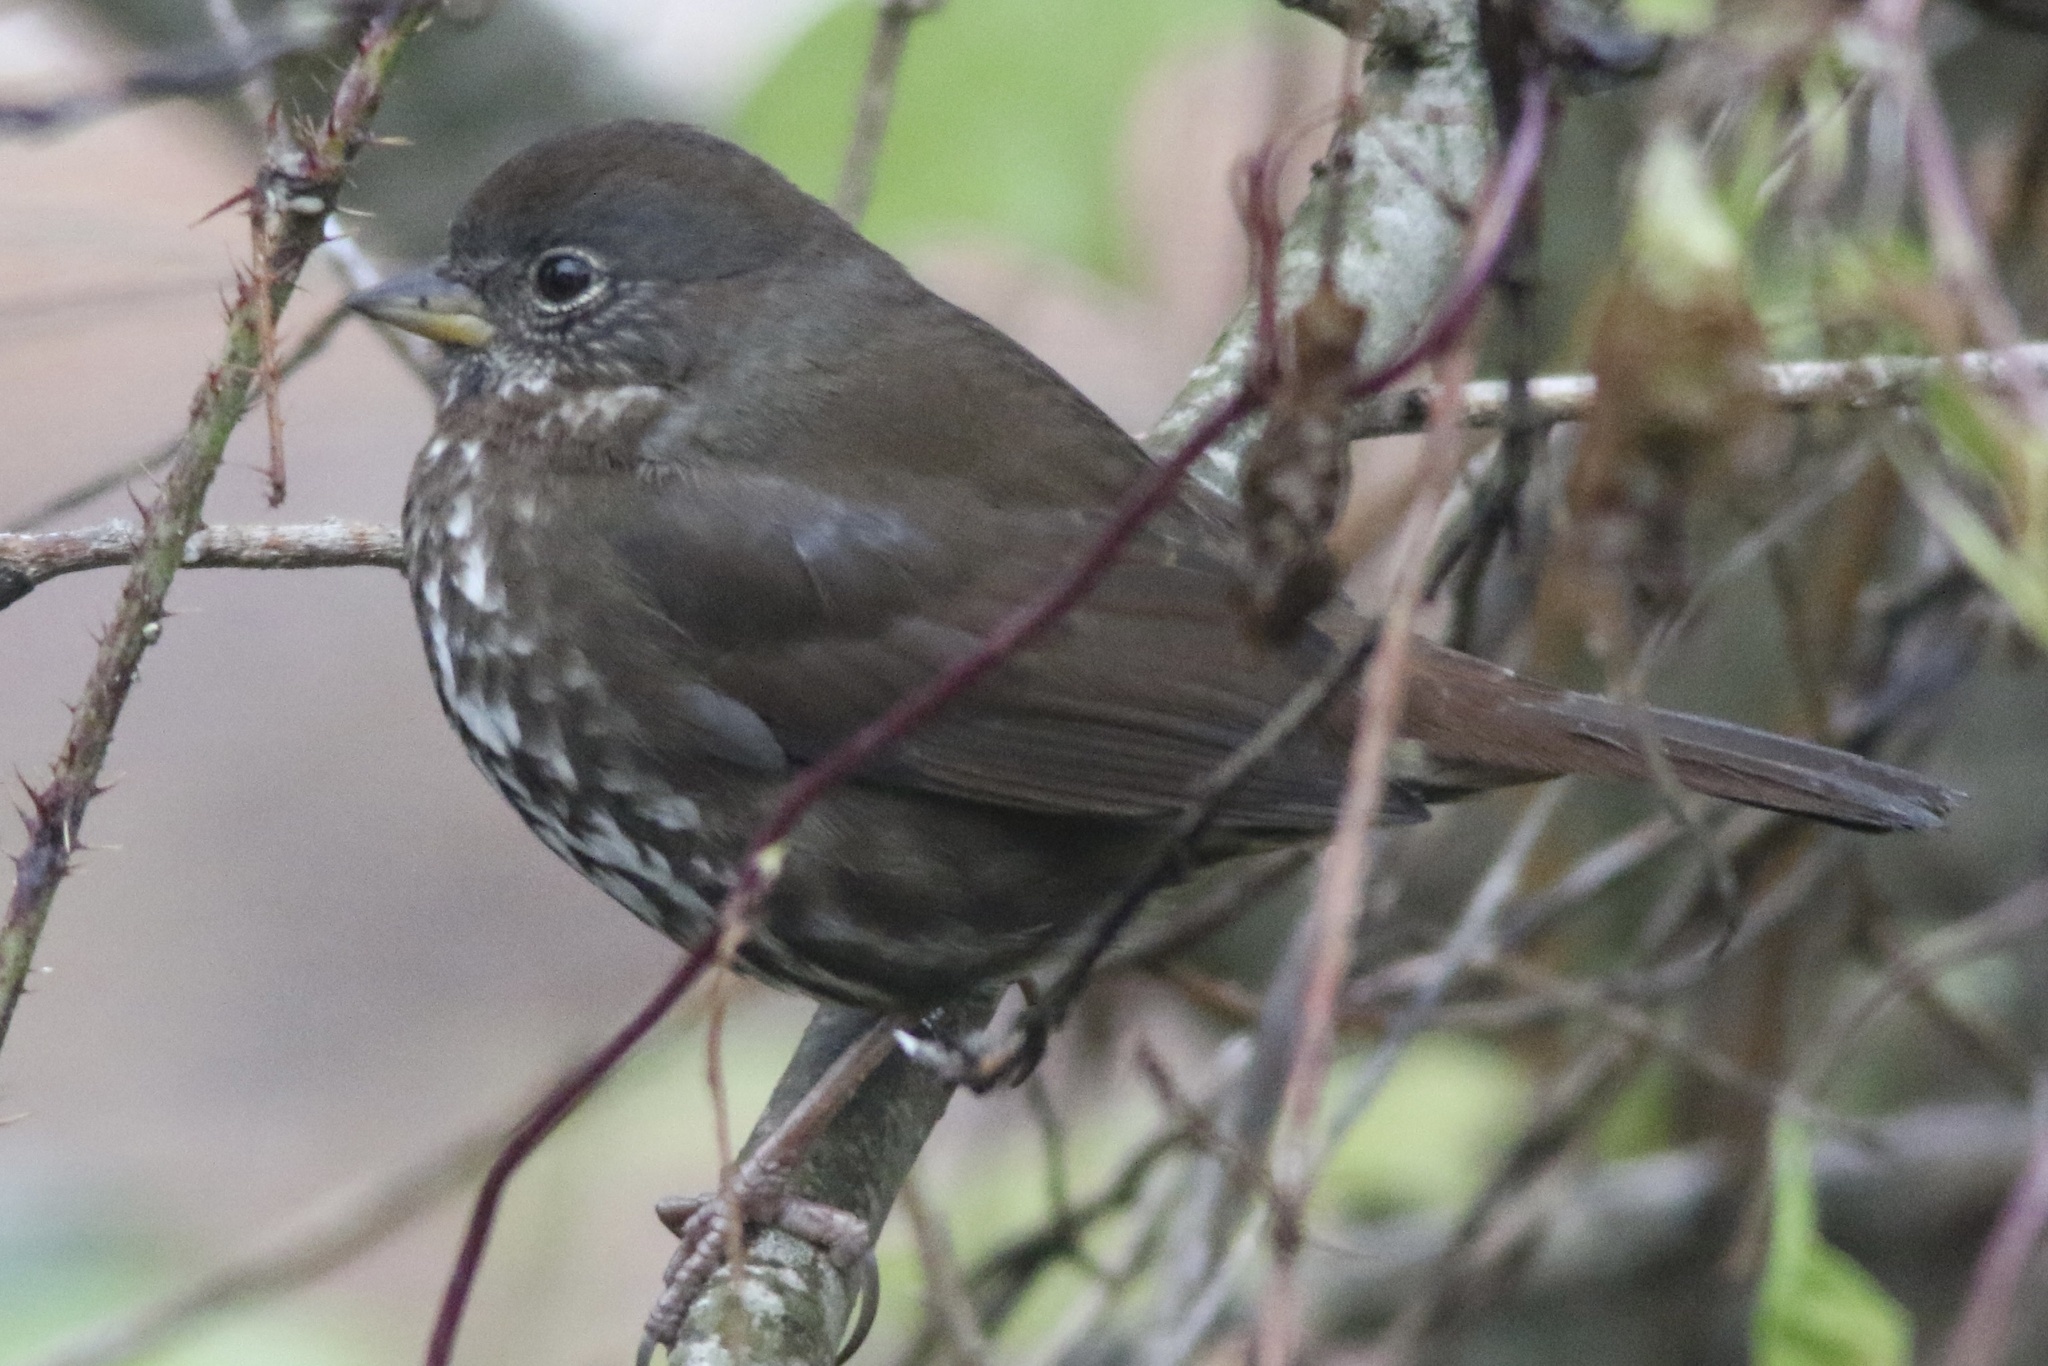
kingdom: Animalia
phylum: Chordata
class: Aves
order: Passeriformes
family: Passerellidae
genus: Passerella
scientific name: Passerella iliaca
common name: Fox sparrow
